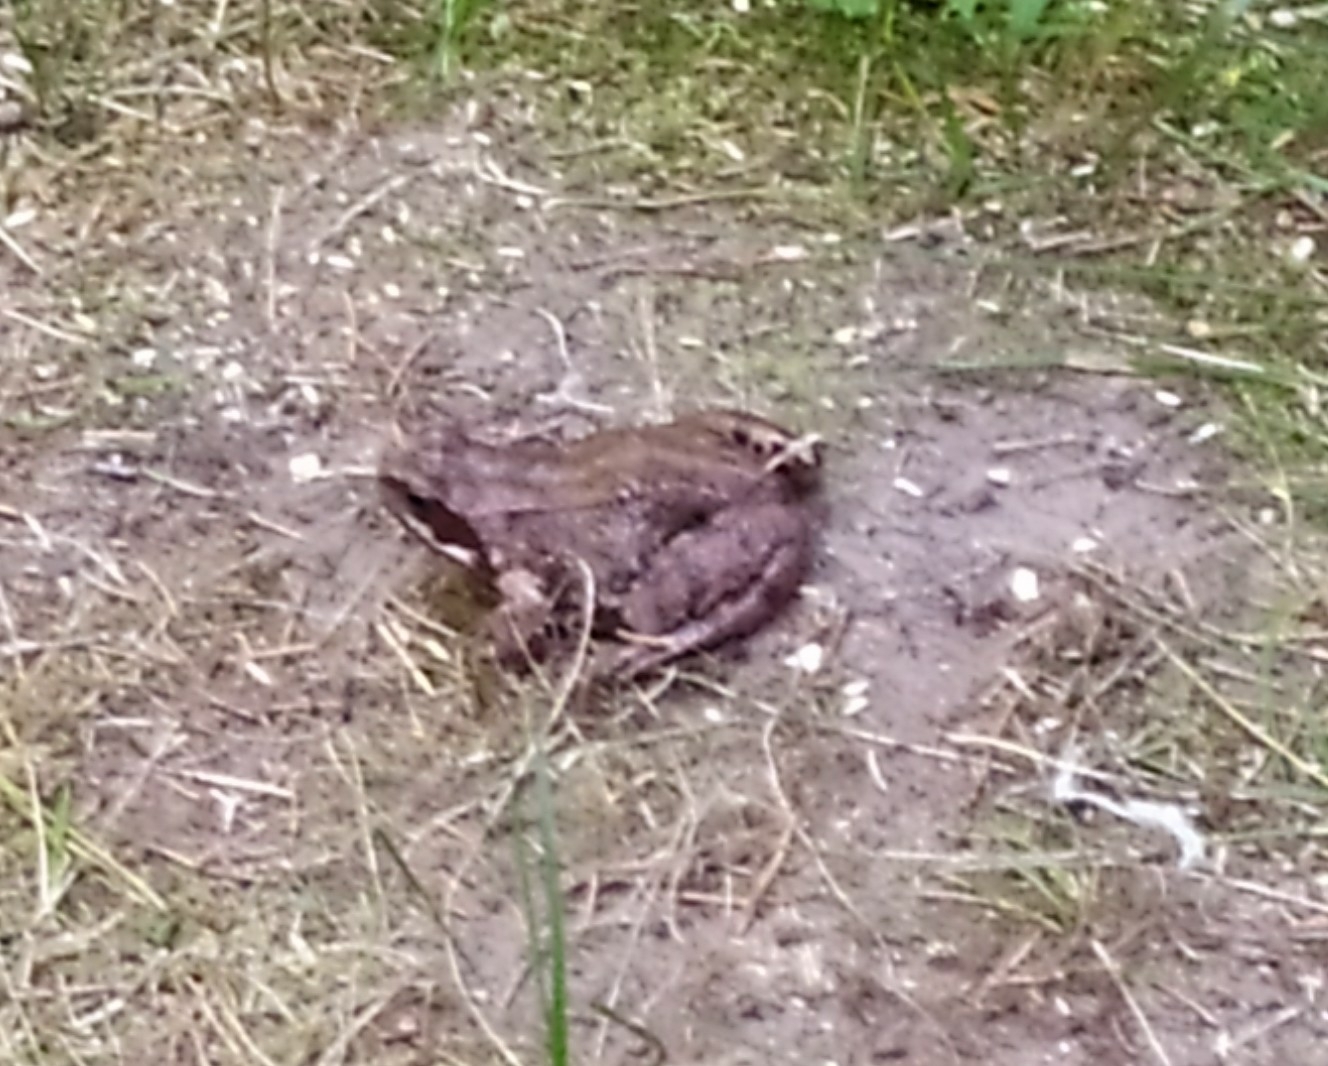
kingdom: Animalia
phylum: Chordata
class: Amphibia
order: Anura
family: Ranidae
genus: Rana
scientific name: Rana temporaria
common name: Common frog
